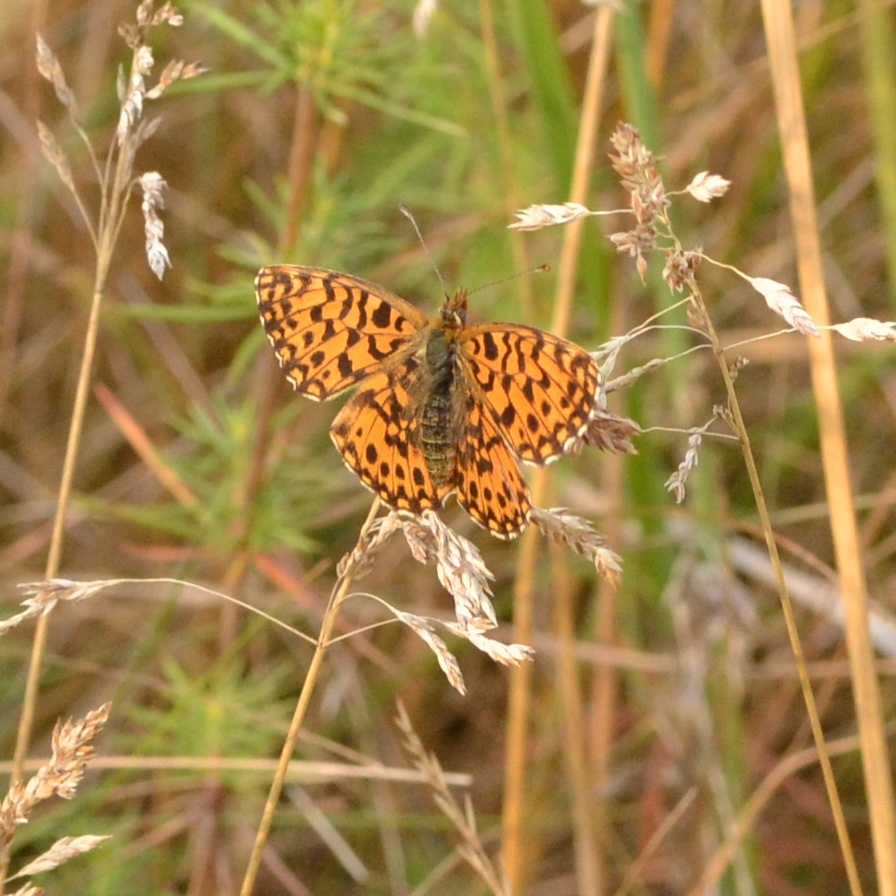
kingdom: Animalia
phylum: Arthropoda
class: Insecta
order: Lepidoptera
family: Nymphalidae
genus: Boloria
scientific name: Boloria dia
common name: Weaver's fritillary
